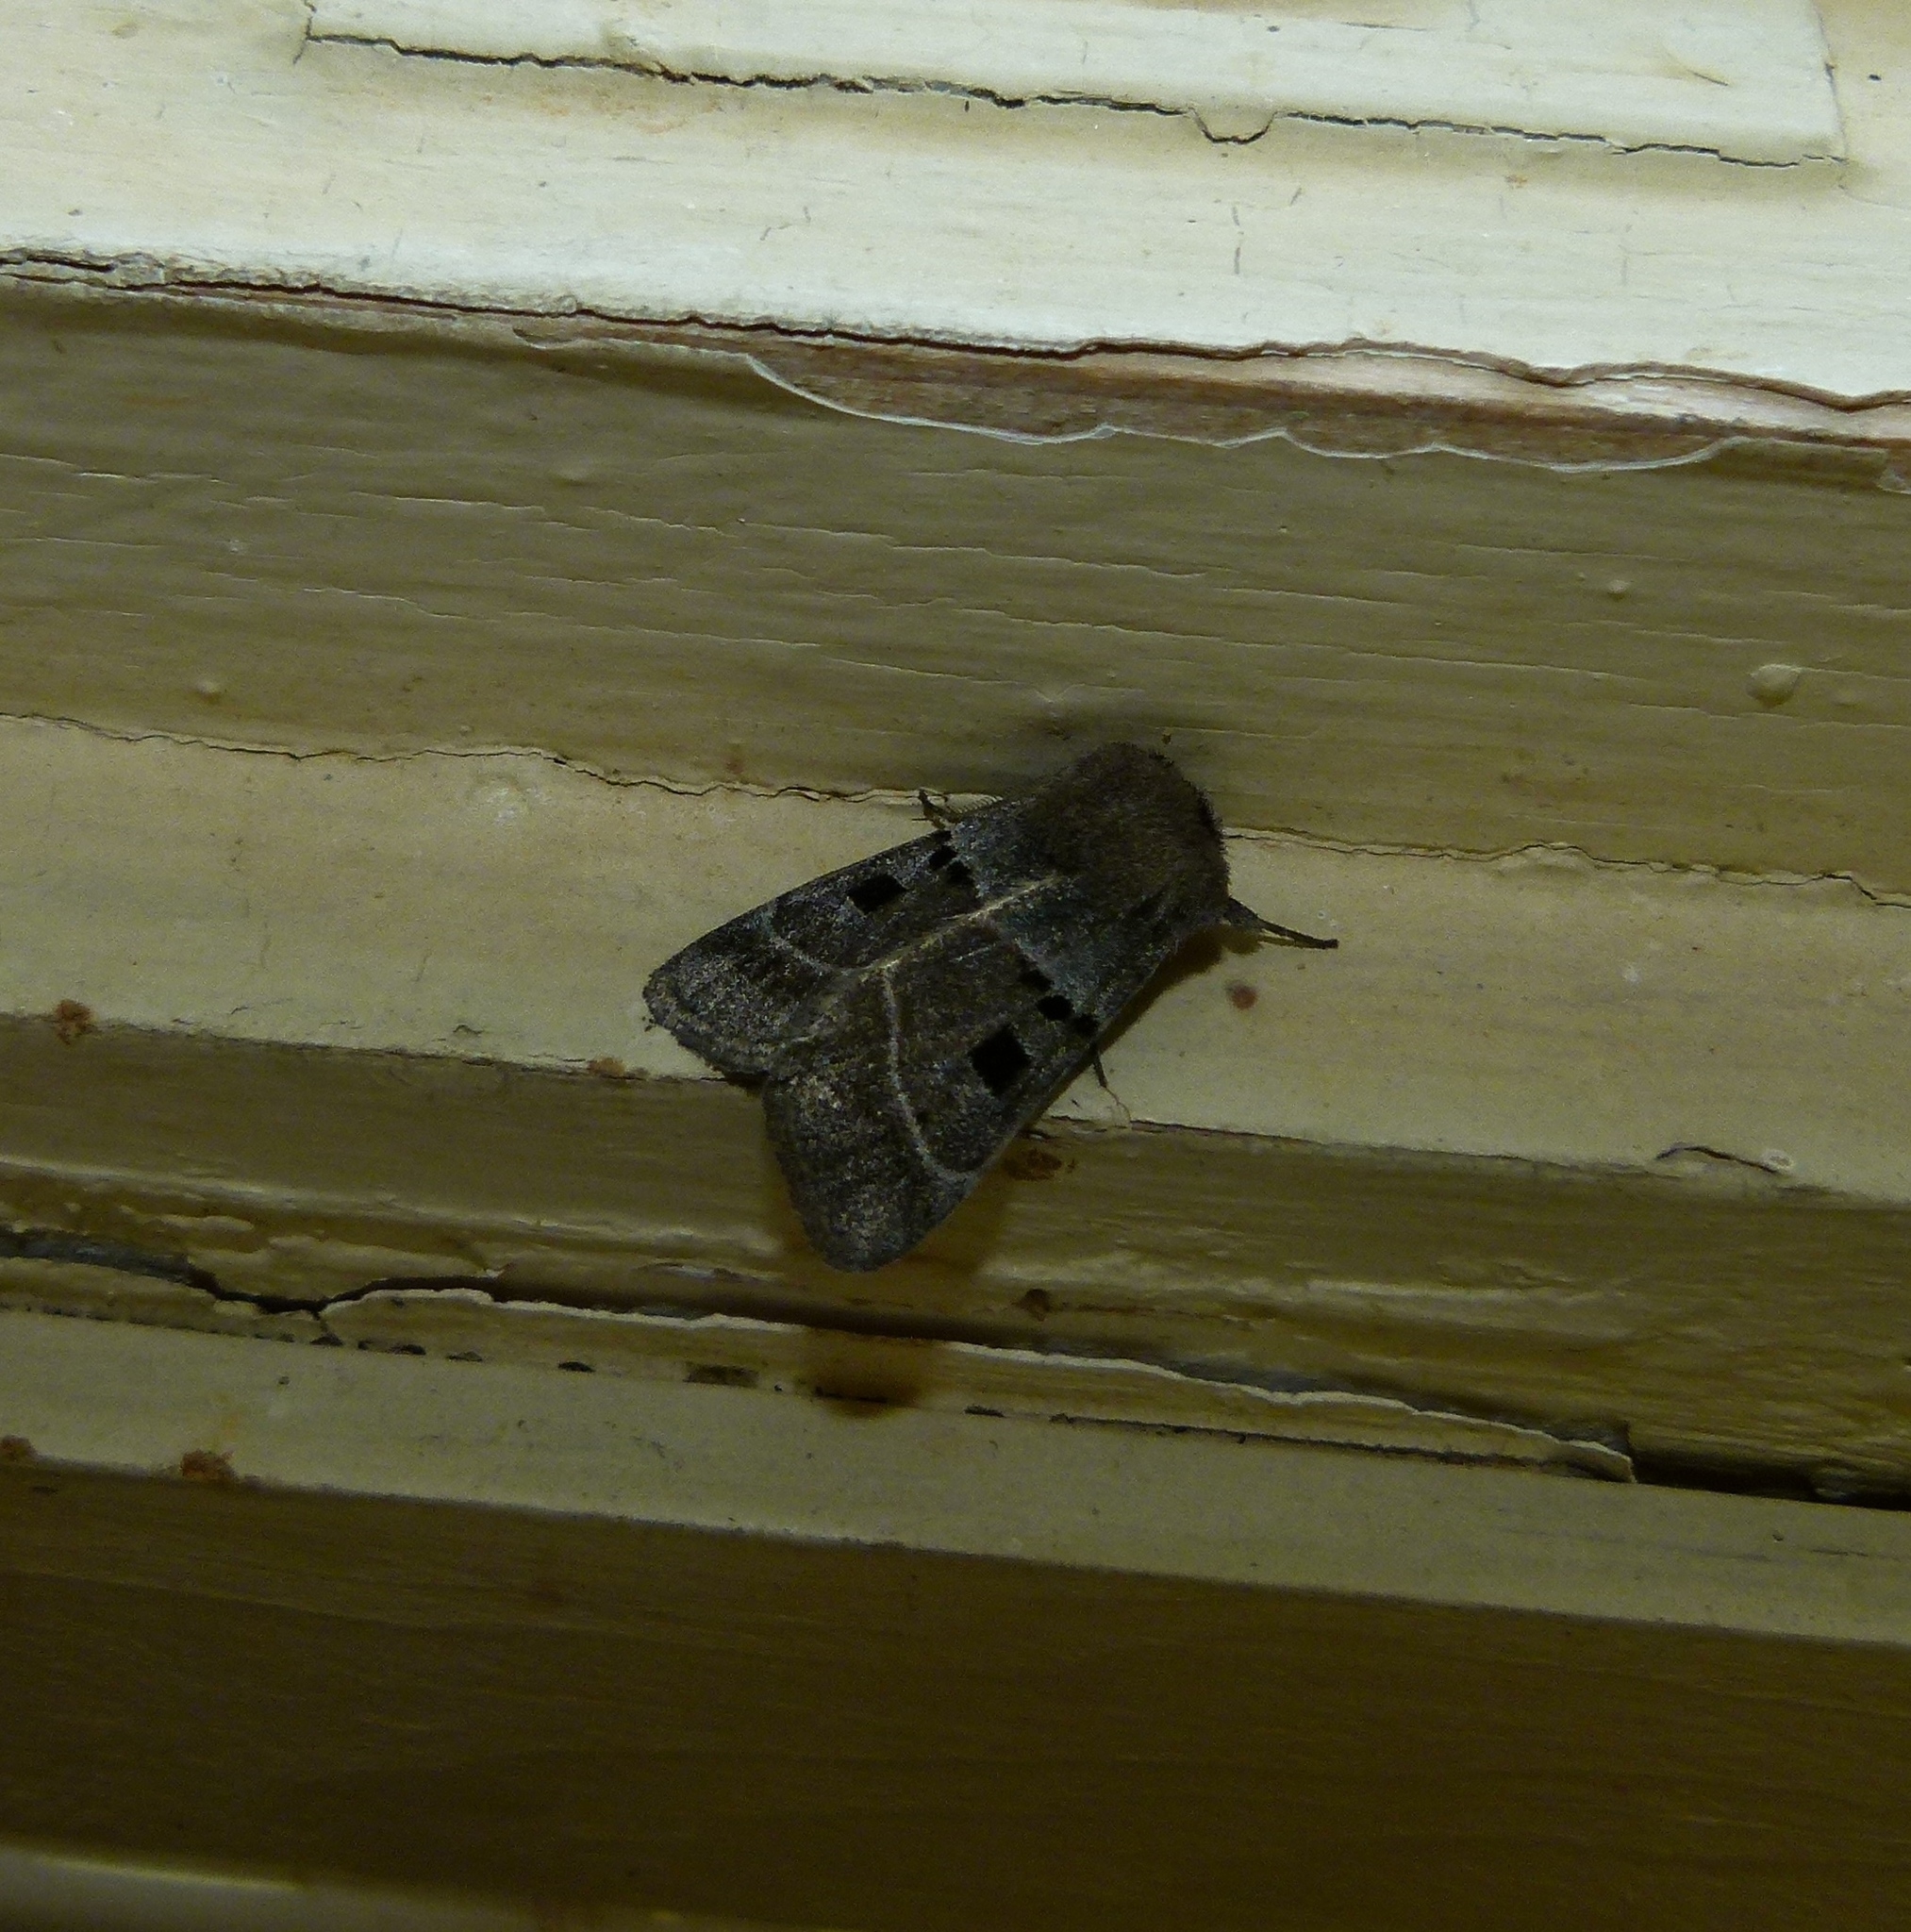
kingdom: Animalia
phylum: Arthropoda
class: Insecta
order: Lepidoptera
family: Noctuidae
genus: Agnorisma
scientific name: Agnorisma bollii
